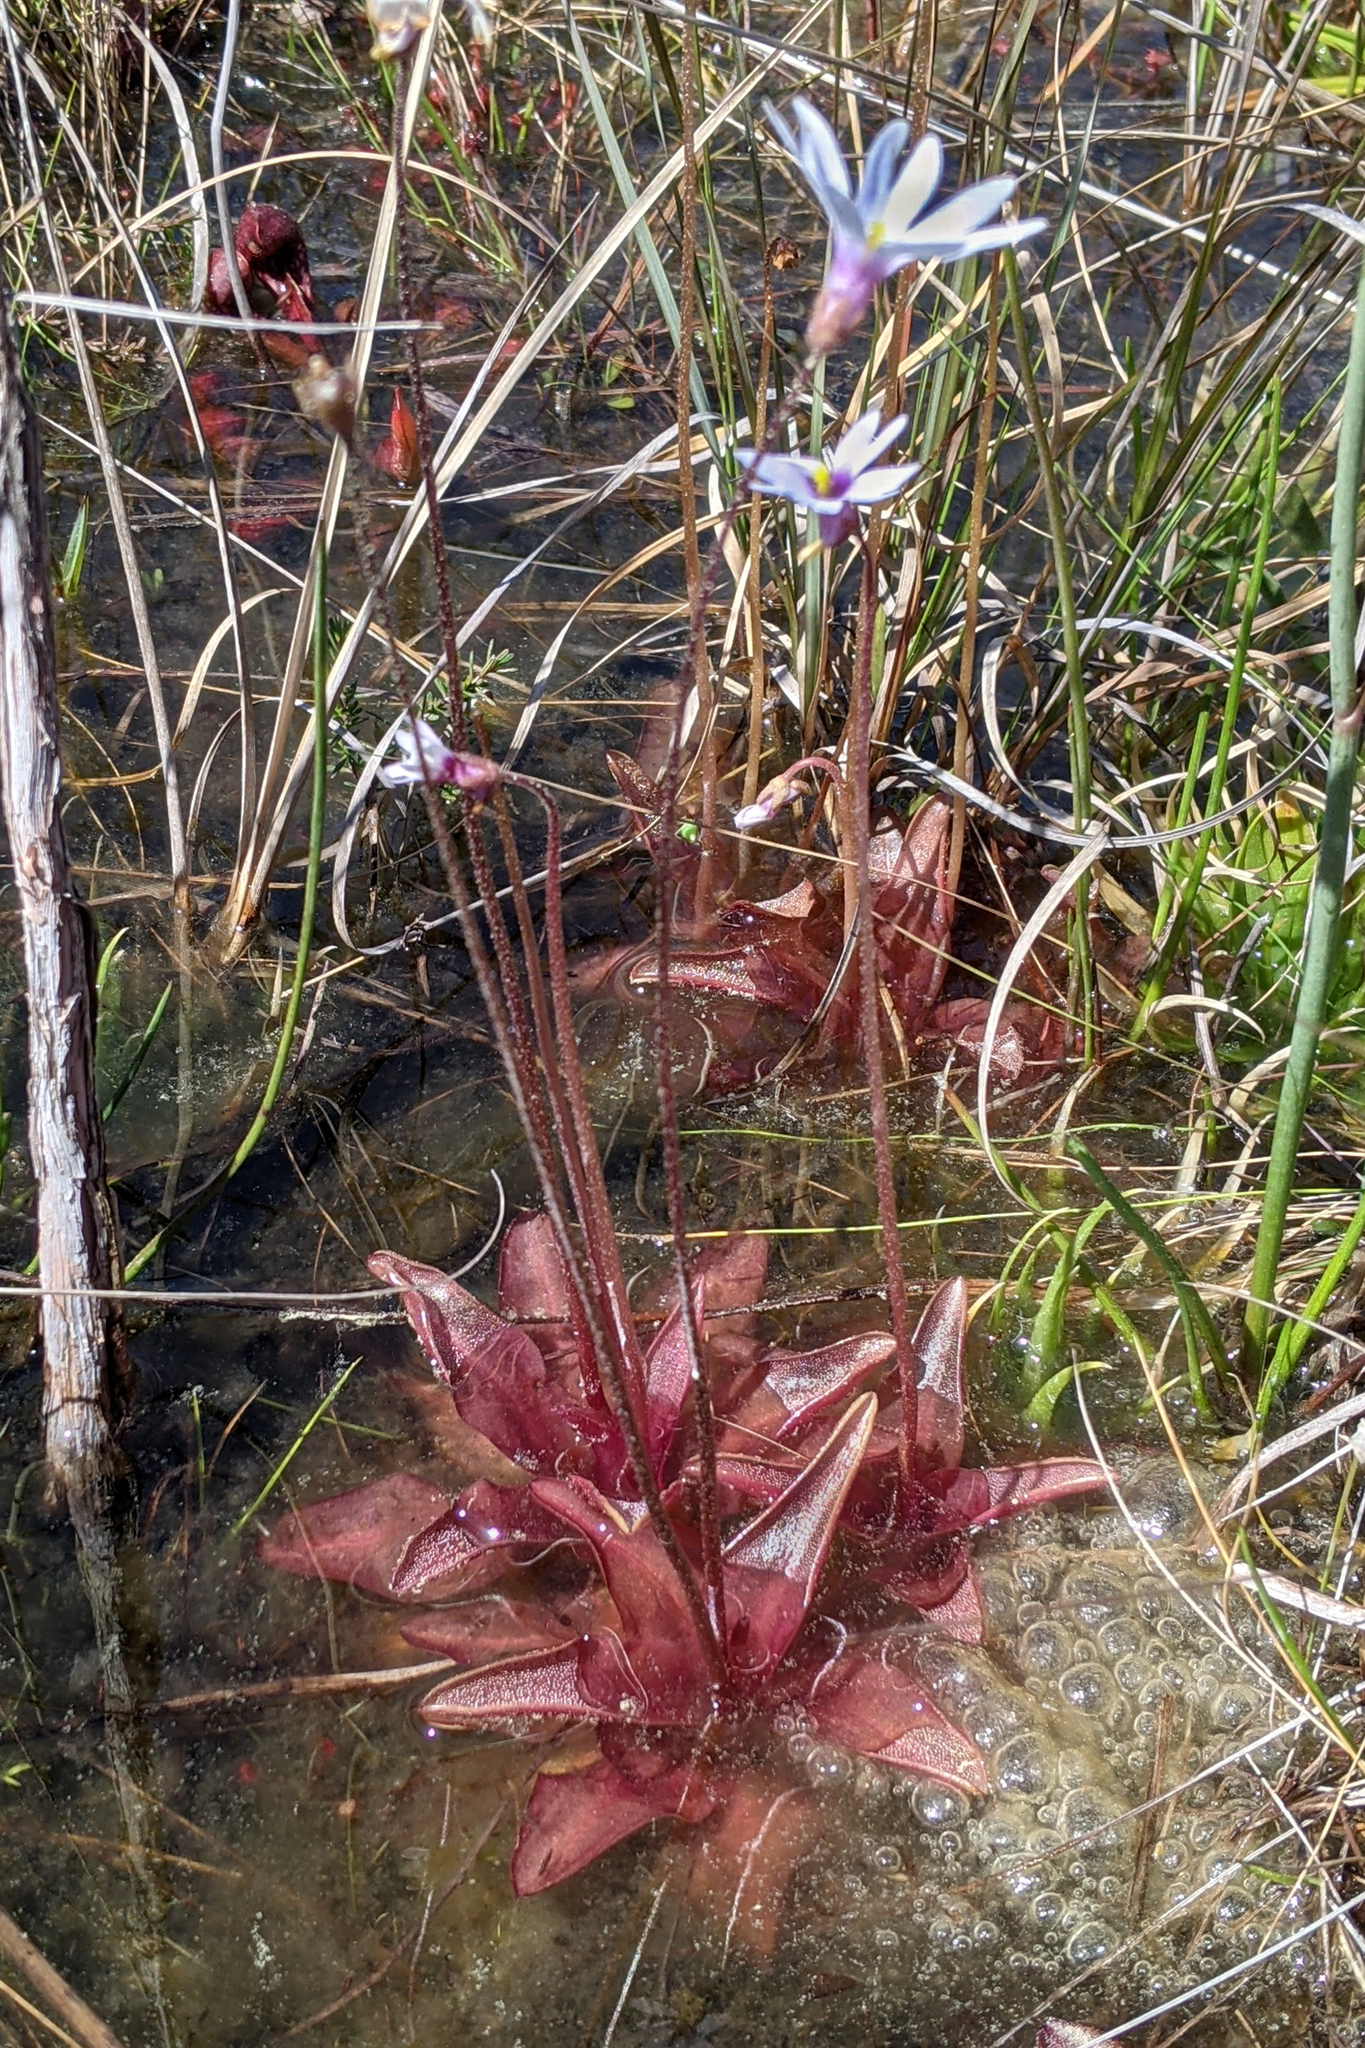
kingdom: Plantae
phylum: Tracheophyta
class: Magnoliopsida
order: Lamiales
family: Lentibulariaceae
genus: Pinguicula
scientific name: Pinguicula planifolia
